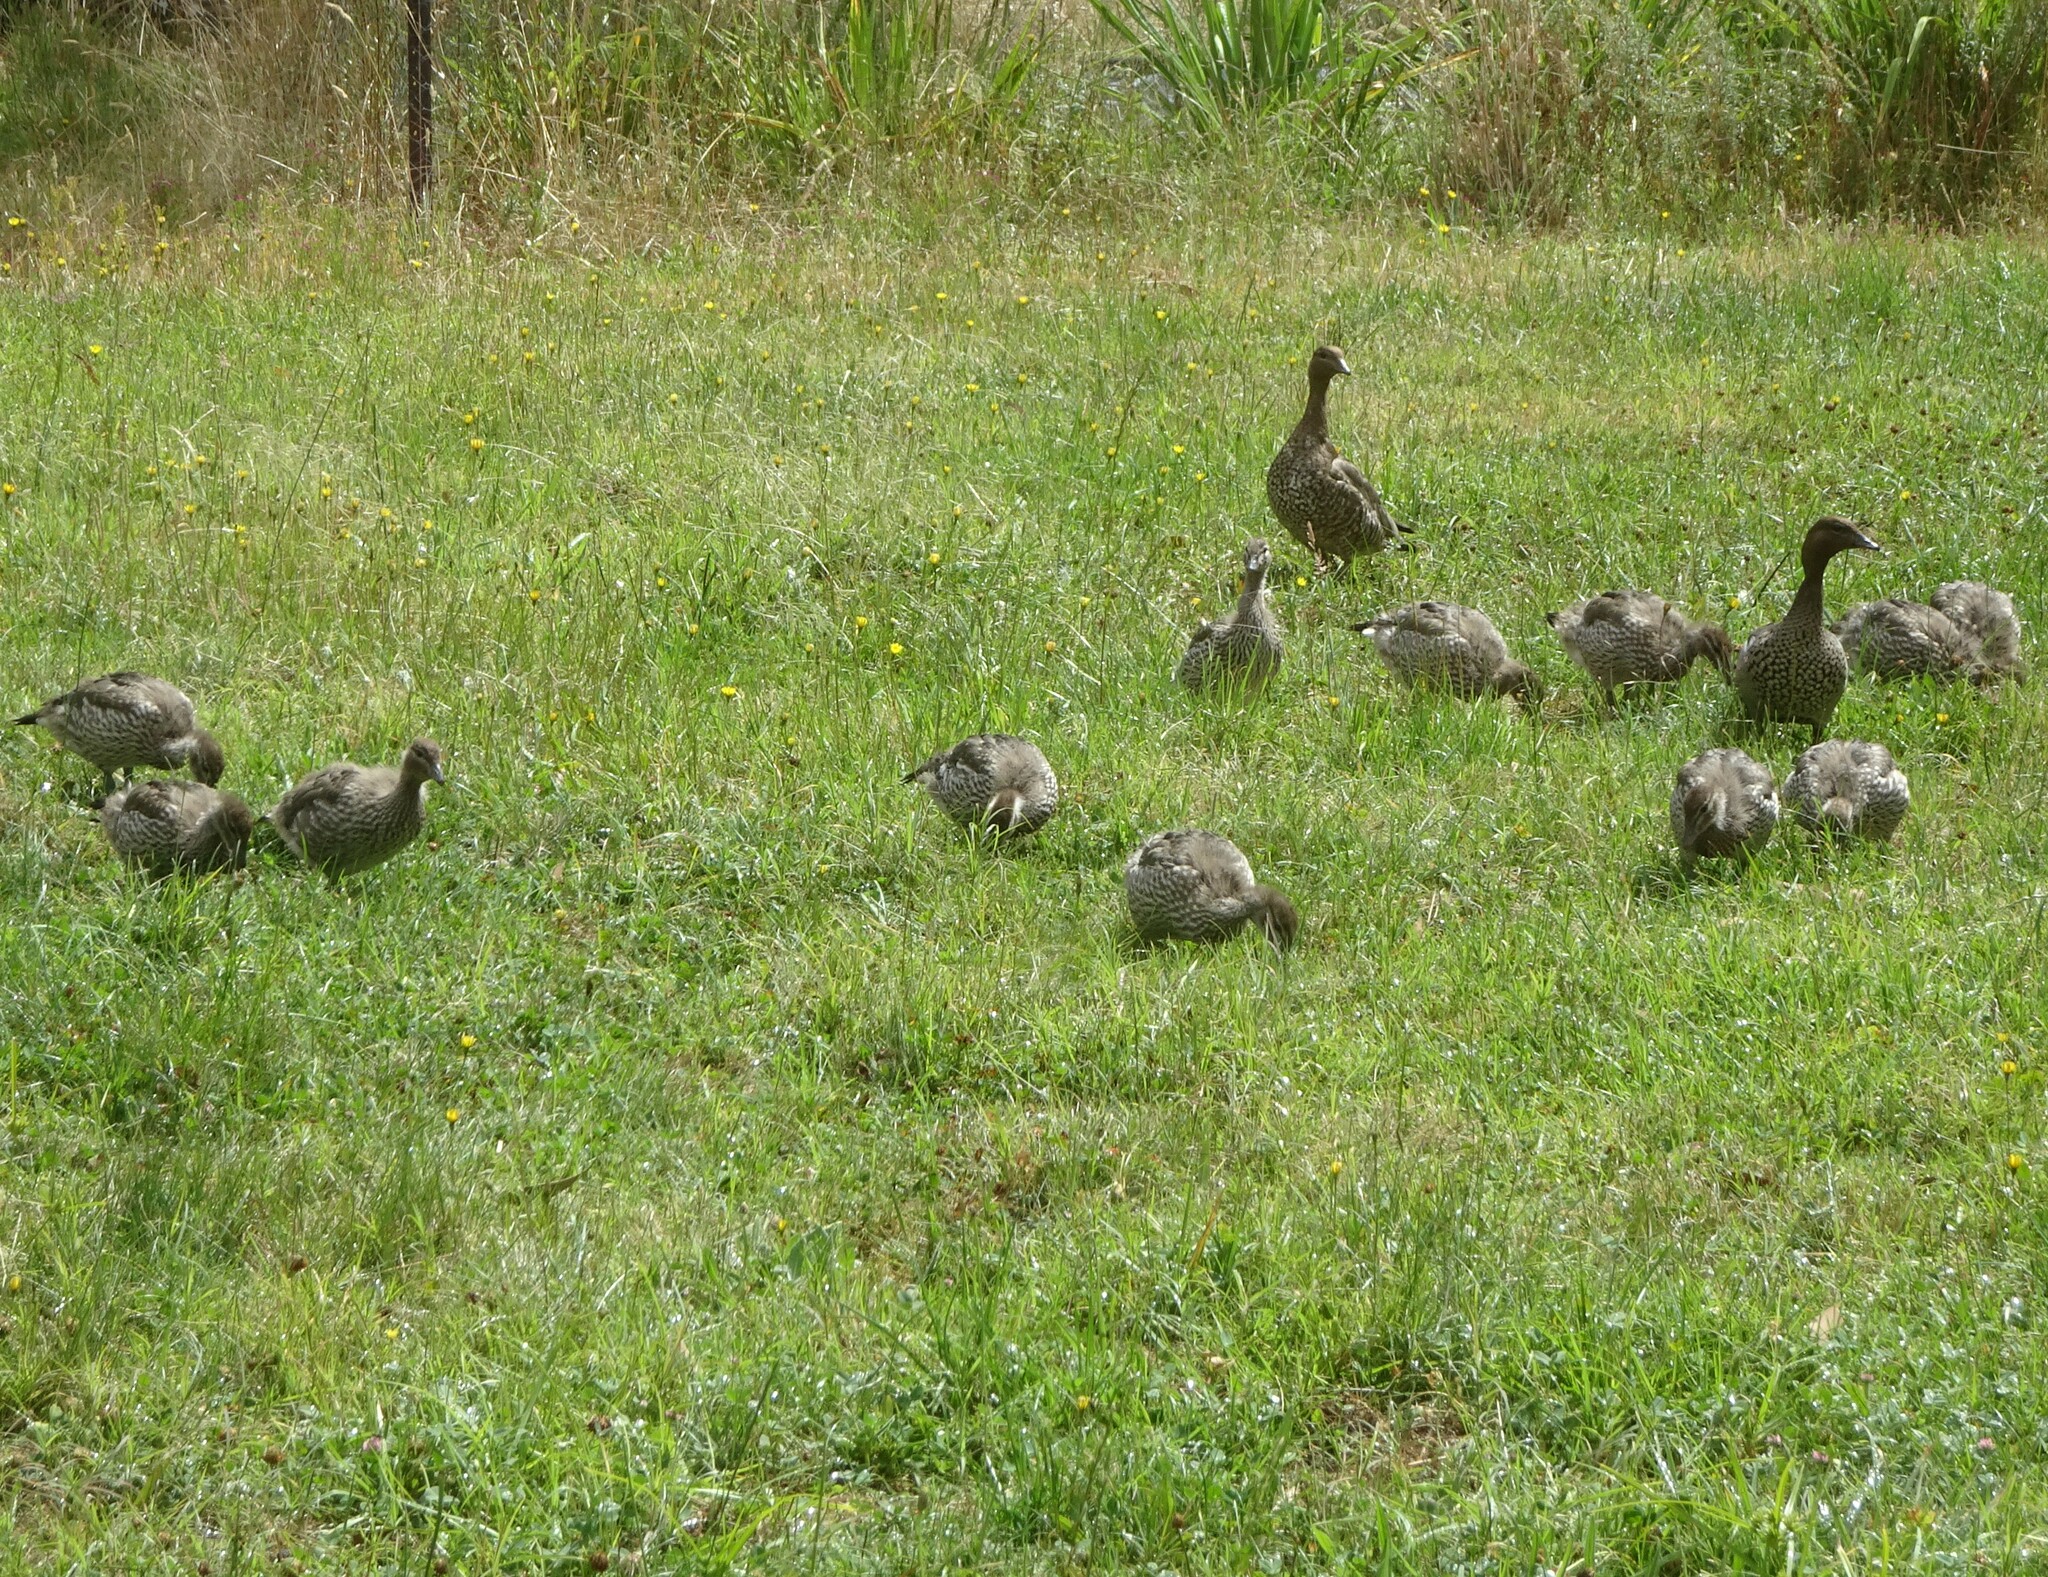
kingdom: Animalia
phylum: Chordata
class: Aves
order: Anseriformes
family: Anatidae
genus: Chenonetta
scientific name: Chenonetta jubata
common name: Maned duck
